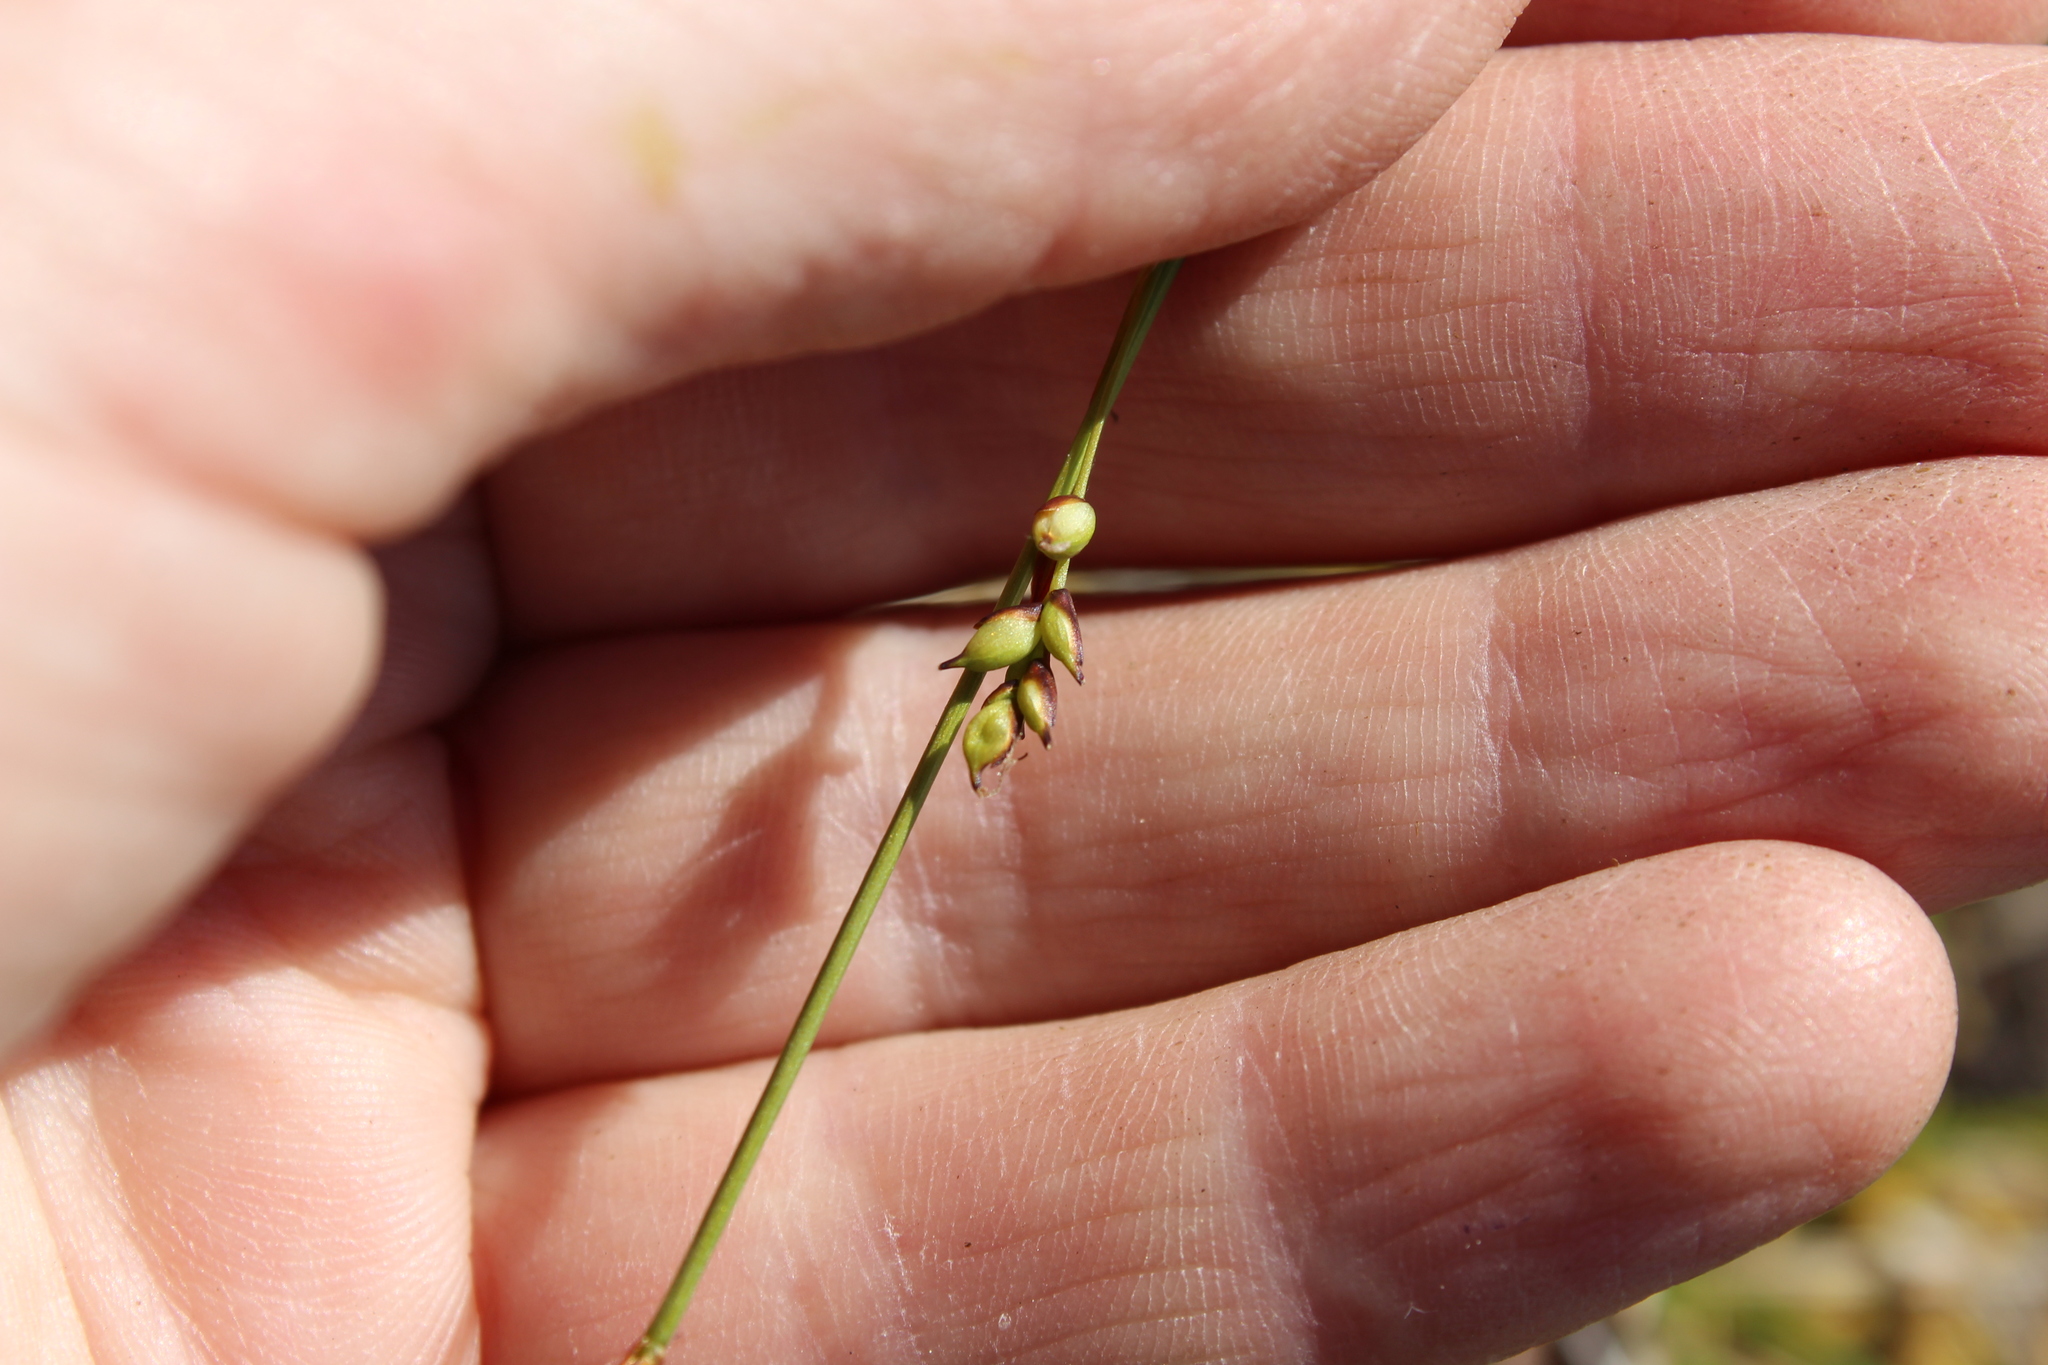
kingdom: Plantae
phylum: Tracheophyta
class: Liliopsida
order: Poales
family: Cyperaceae
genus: Carex
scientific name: Carex vaginata
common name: Sheathed sedge
